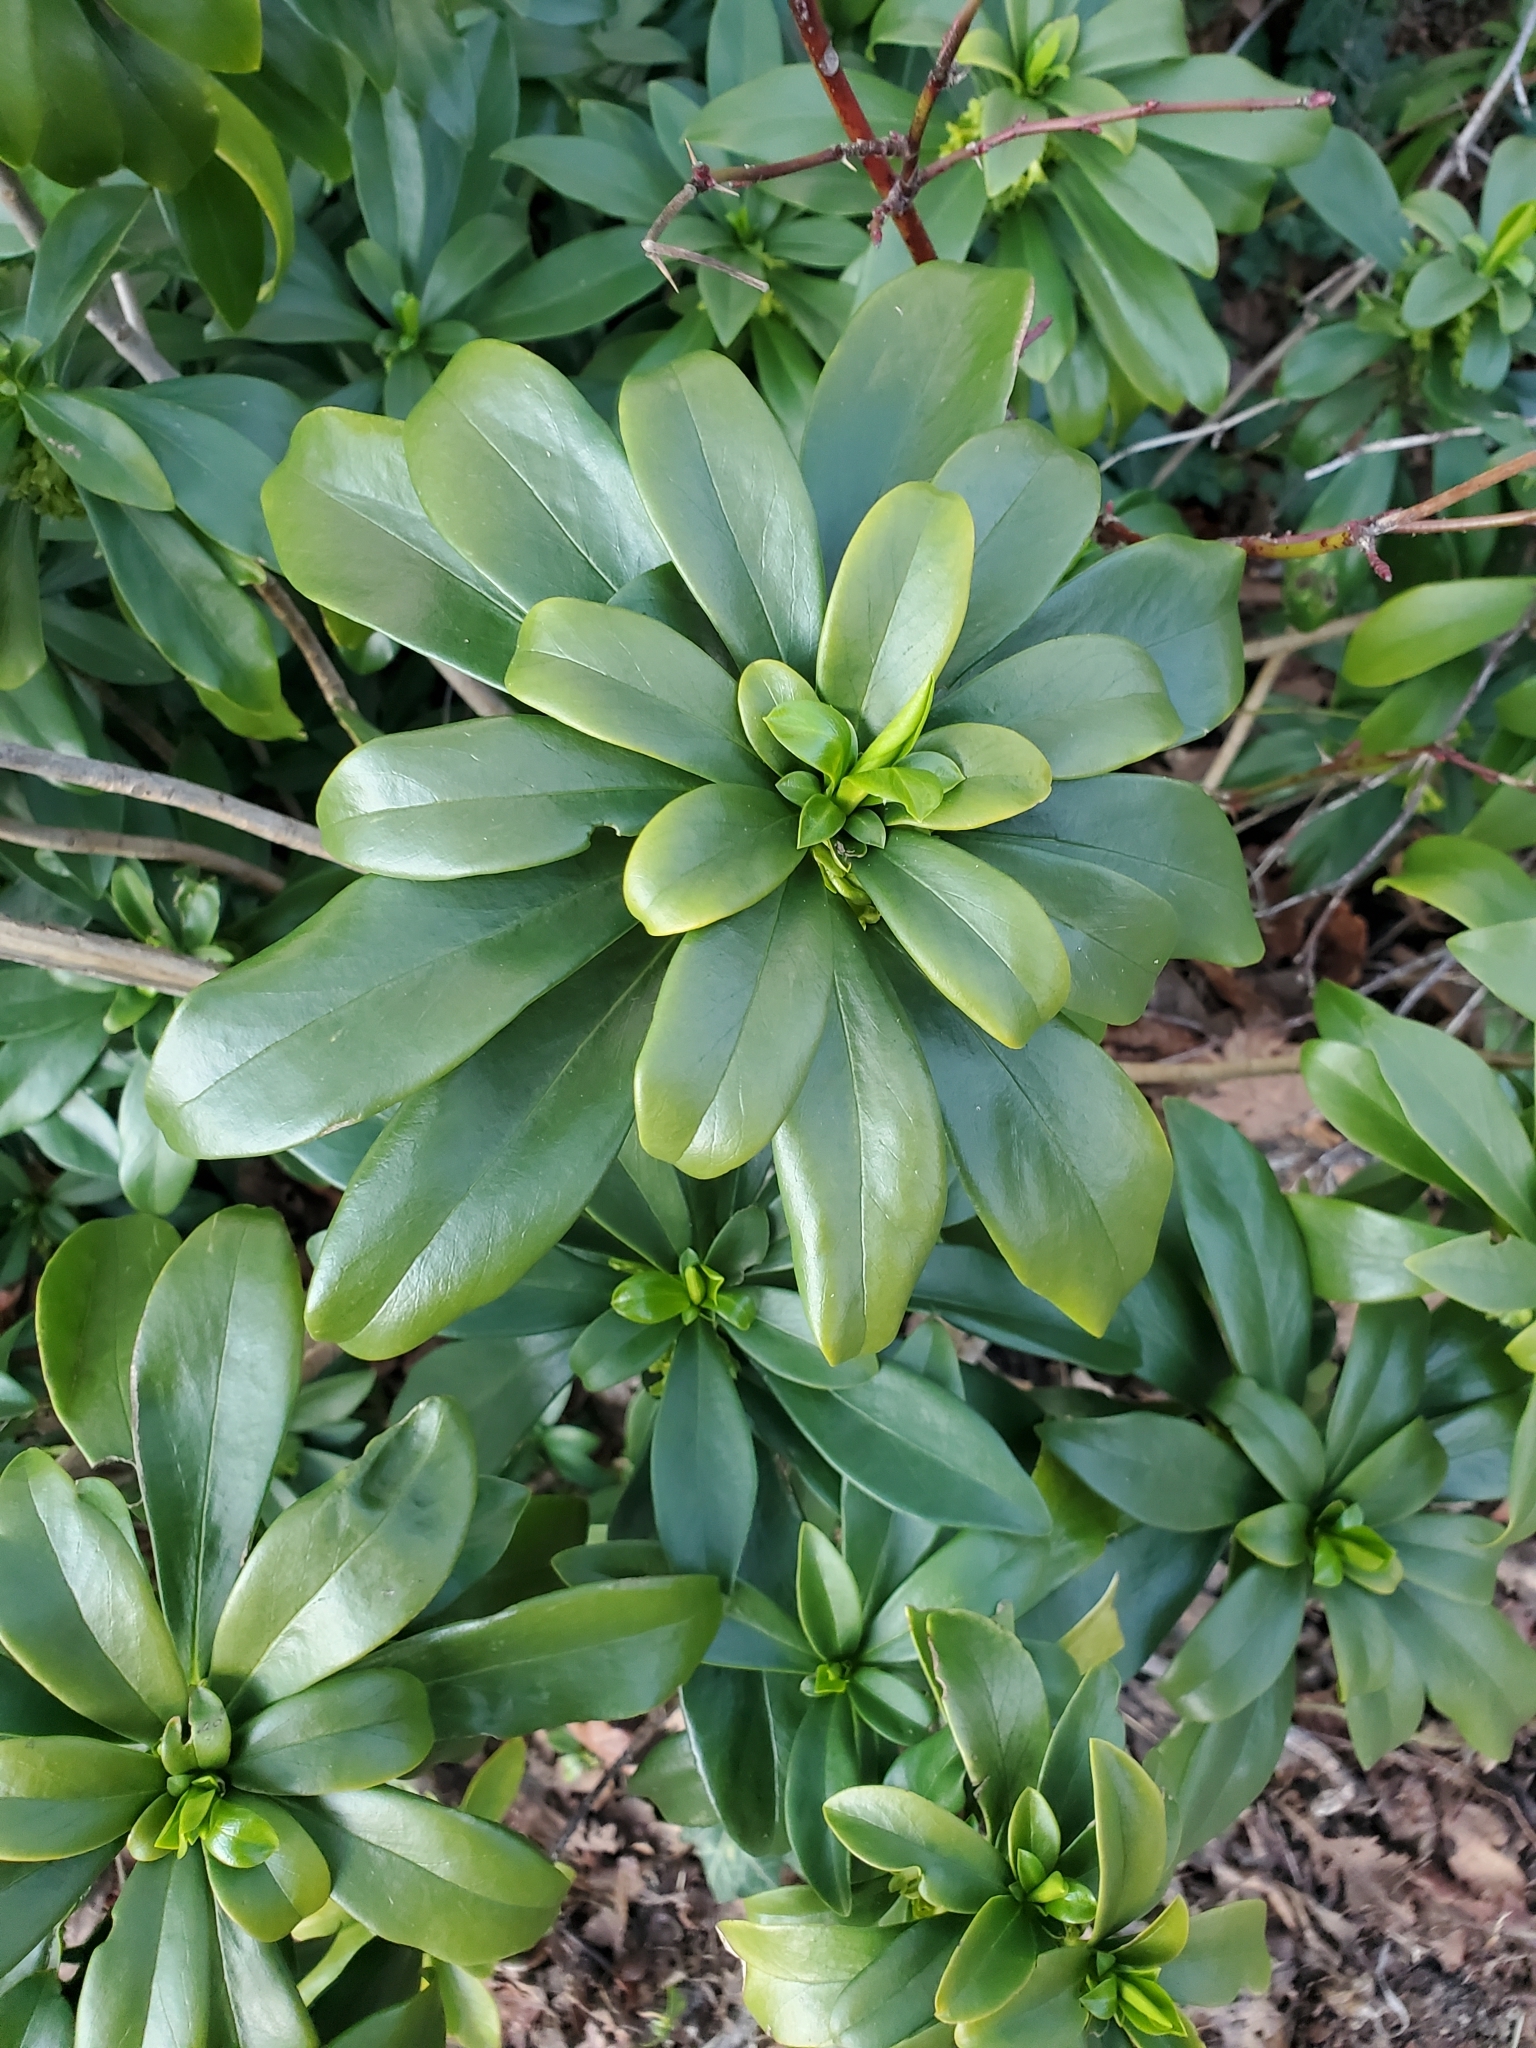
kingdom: Plantae
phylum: Tracheophyta
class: Magnoliopsida
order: Malvales
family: Thymelaeaceae
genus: Daphne
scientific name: Daphne laureola
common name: Spurge-laurel
